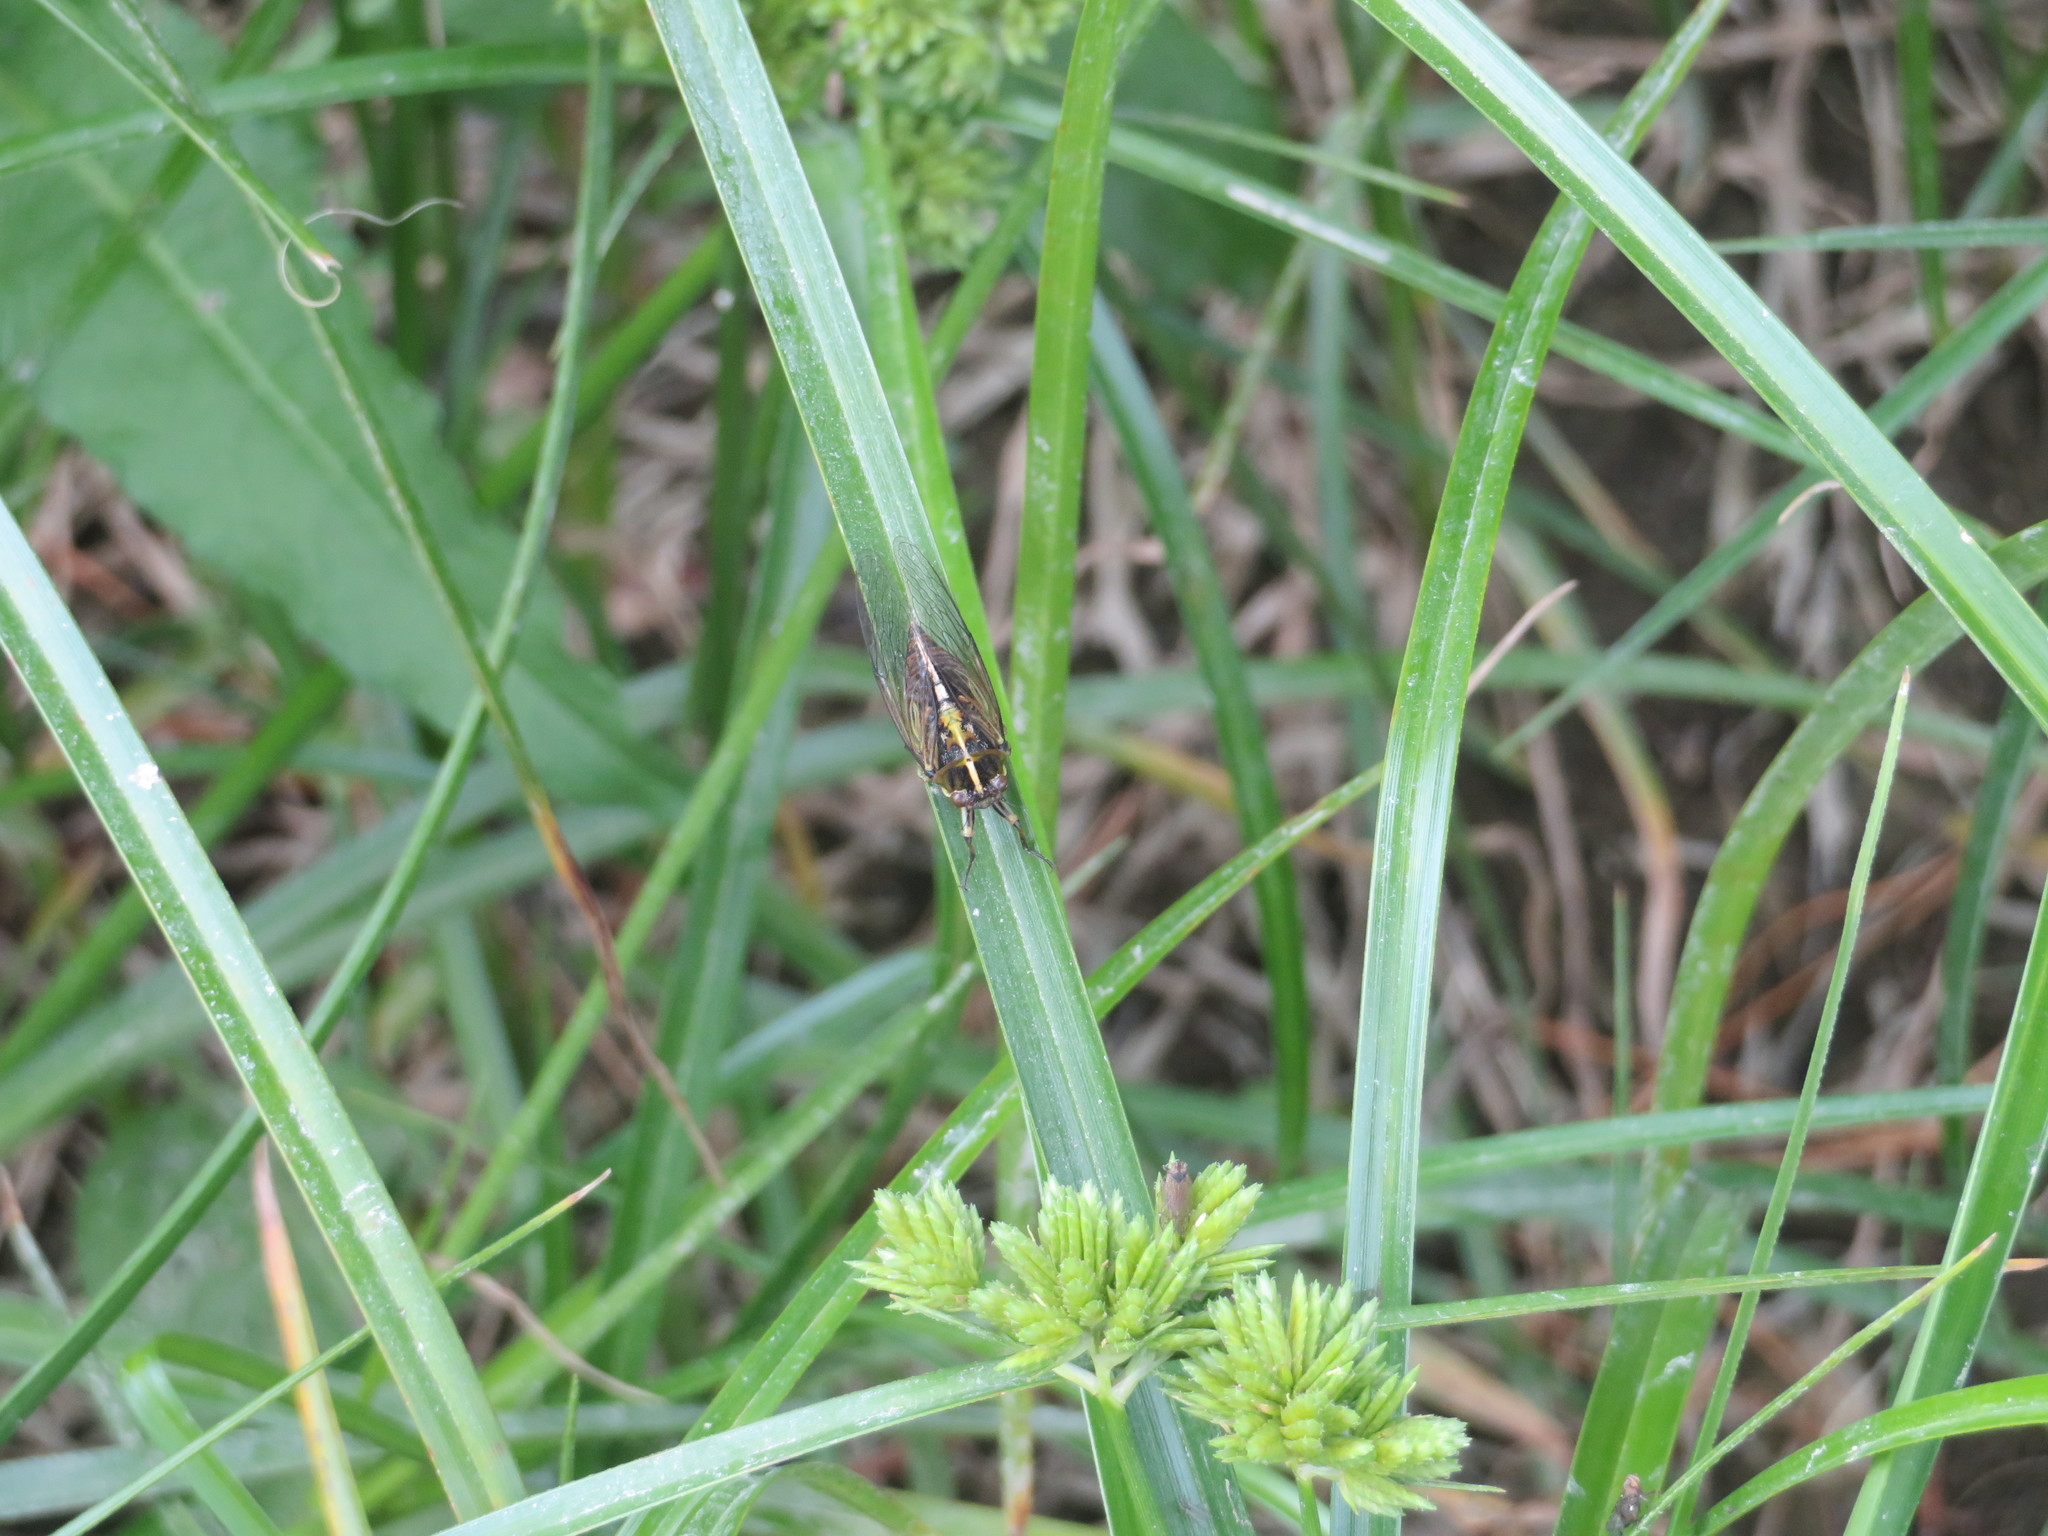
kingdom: Animalia
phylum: Arthropoda
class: Insecta
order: Hemiptera
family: Cicadidae
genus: Kikihia
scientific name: Kikihia muta
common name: Variable cicada
